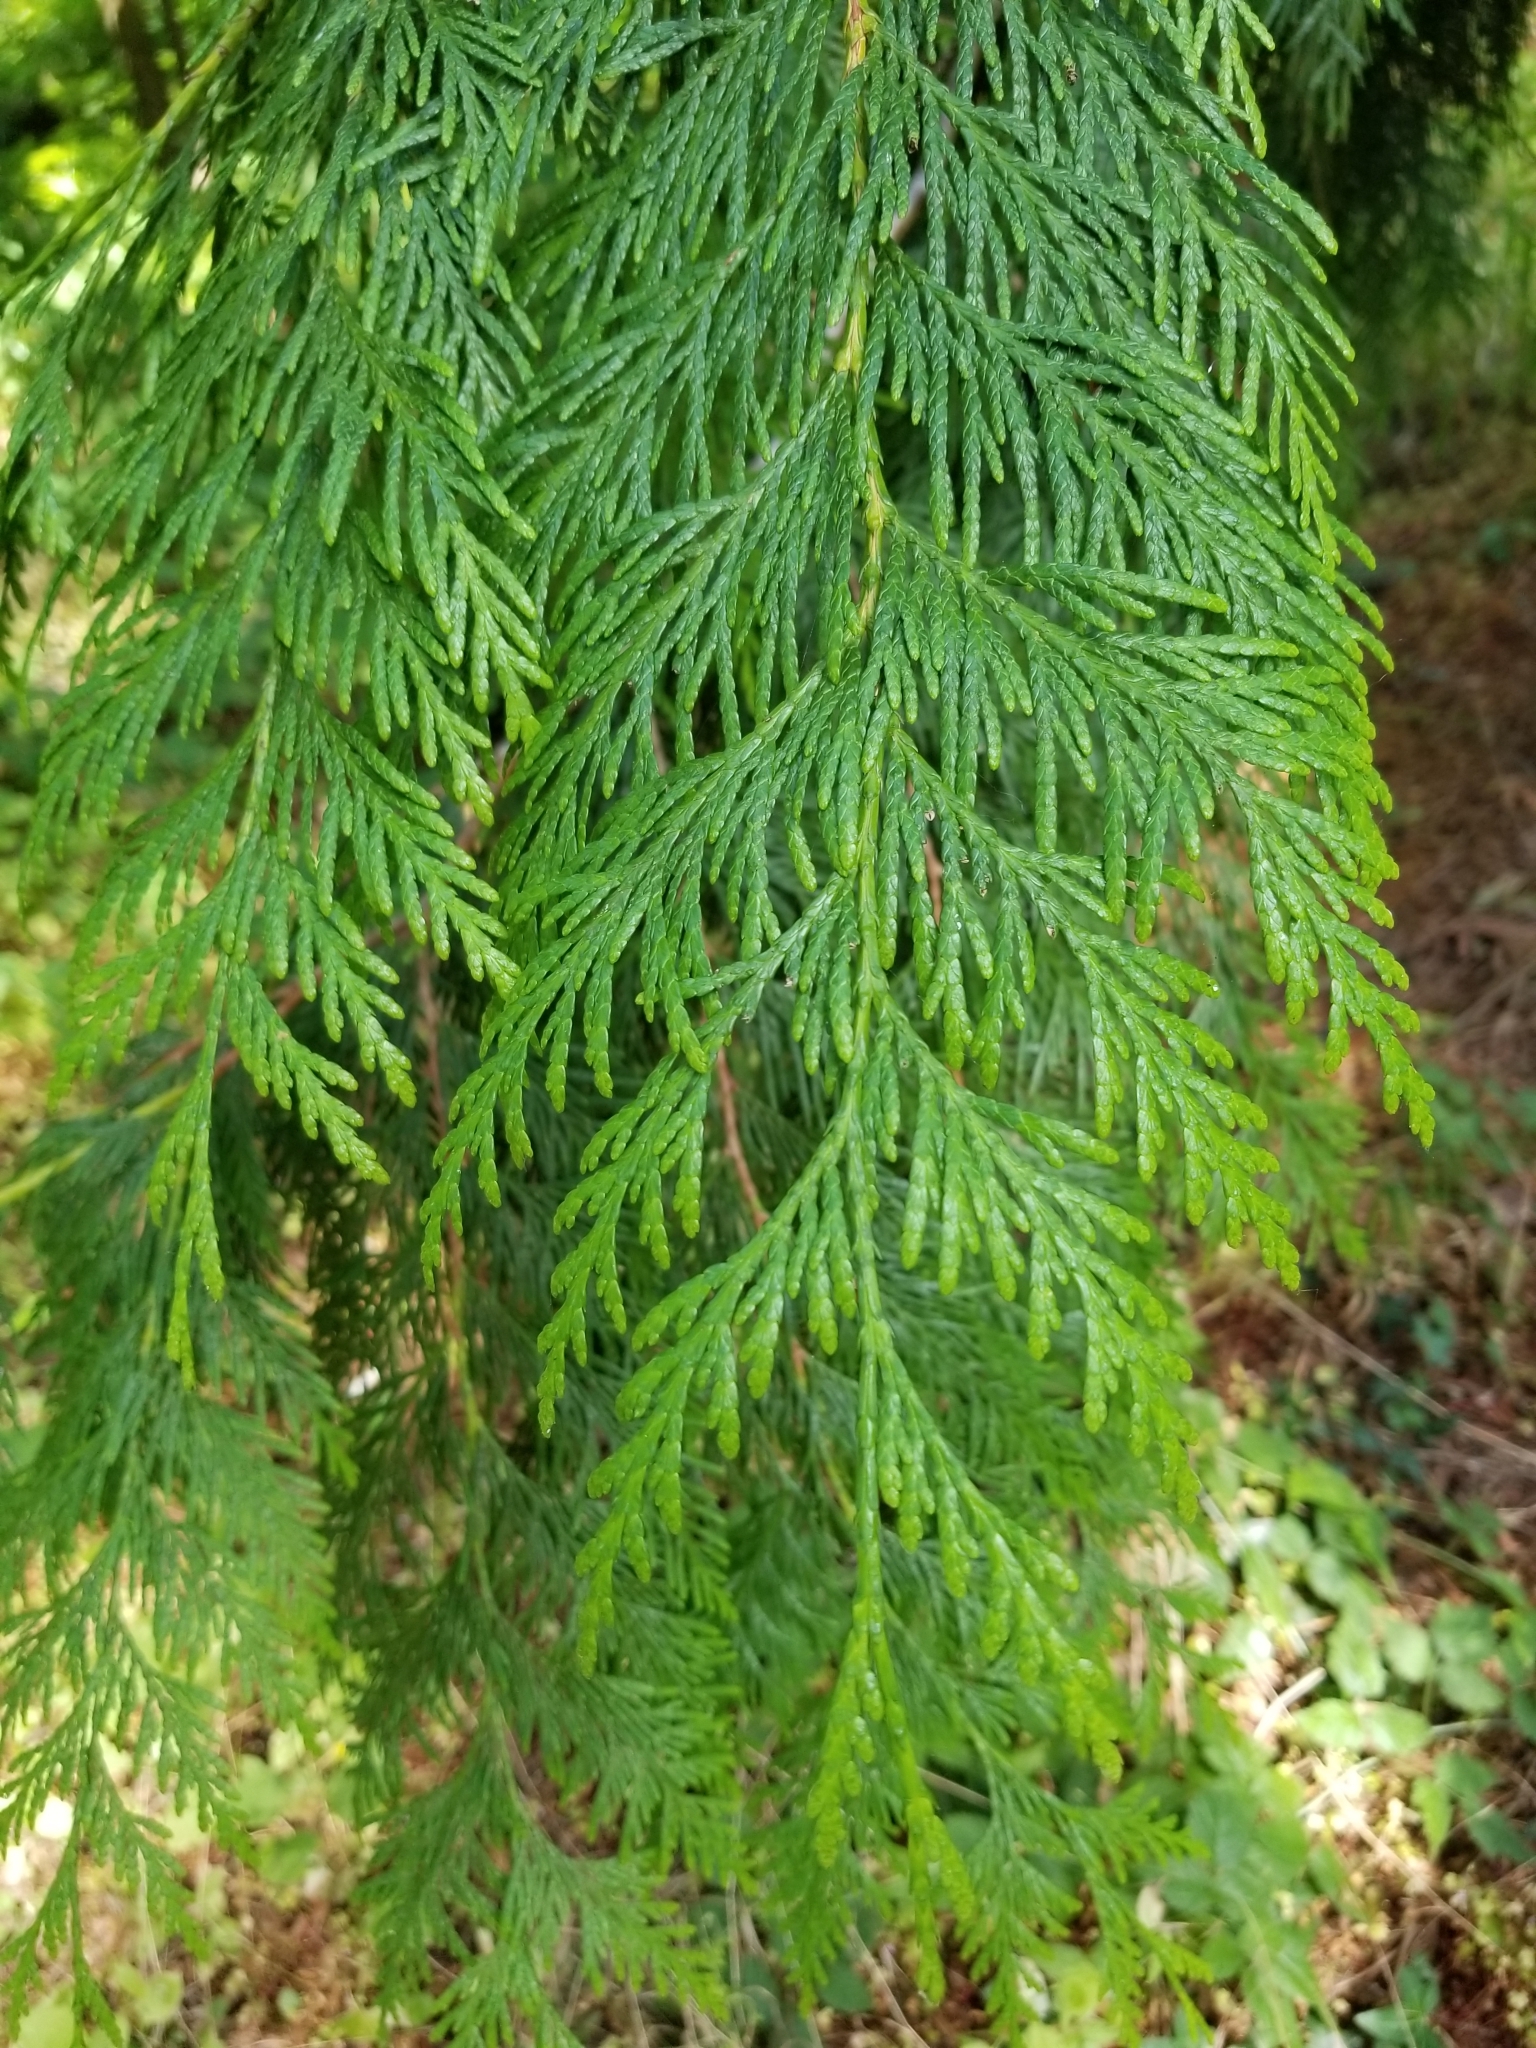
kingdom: Plantae
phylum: Tracheophyta
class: Pinopsida
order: Pinales
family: Cupressaceae
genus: Thuja
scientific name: Thuja plicata
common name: Western red-cedar
